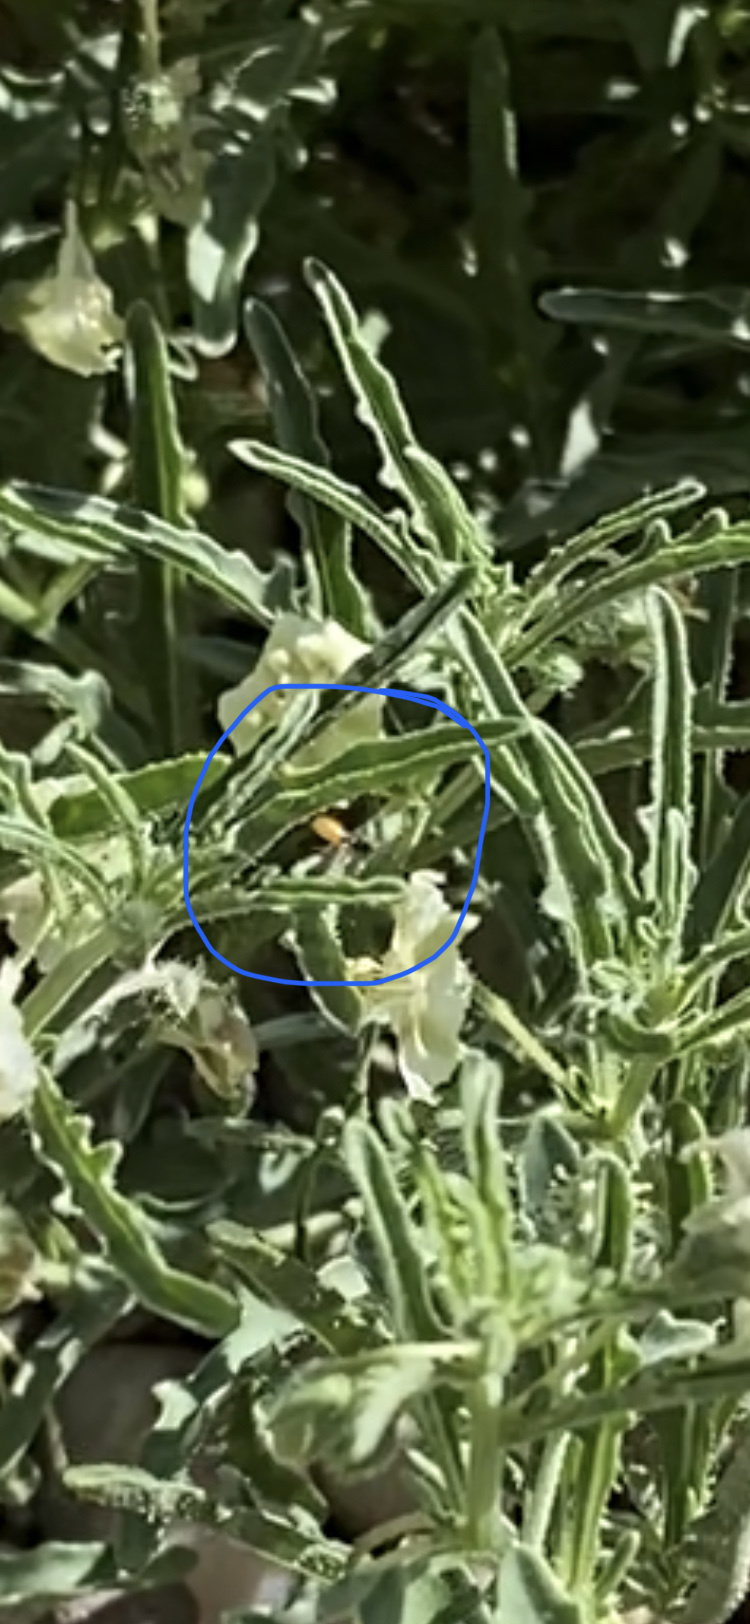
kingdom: Animalia
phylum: Arthropoda
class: Insecta
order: Hymenoptera
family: Andrenidae
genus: Perdita
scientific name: Perdita chamaesarachae
